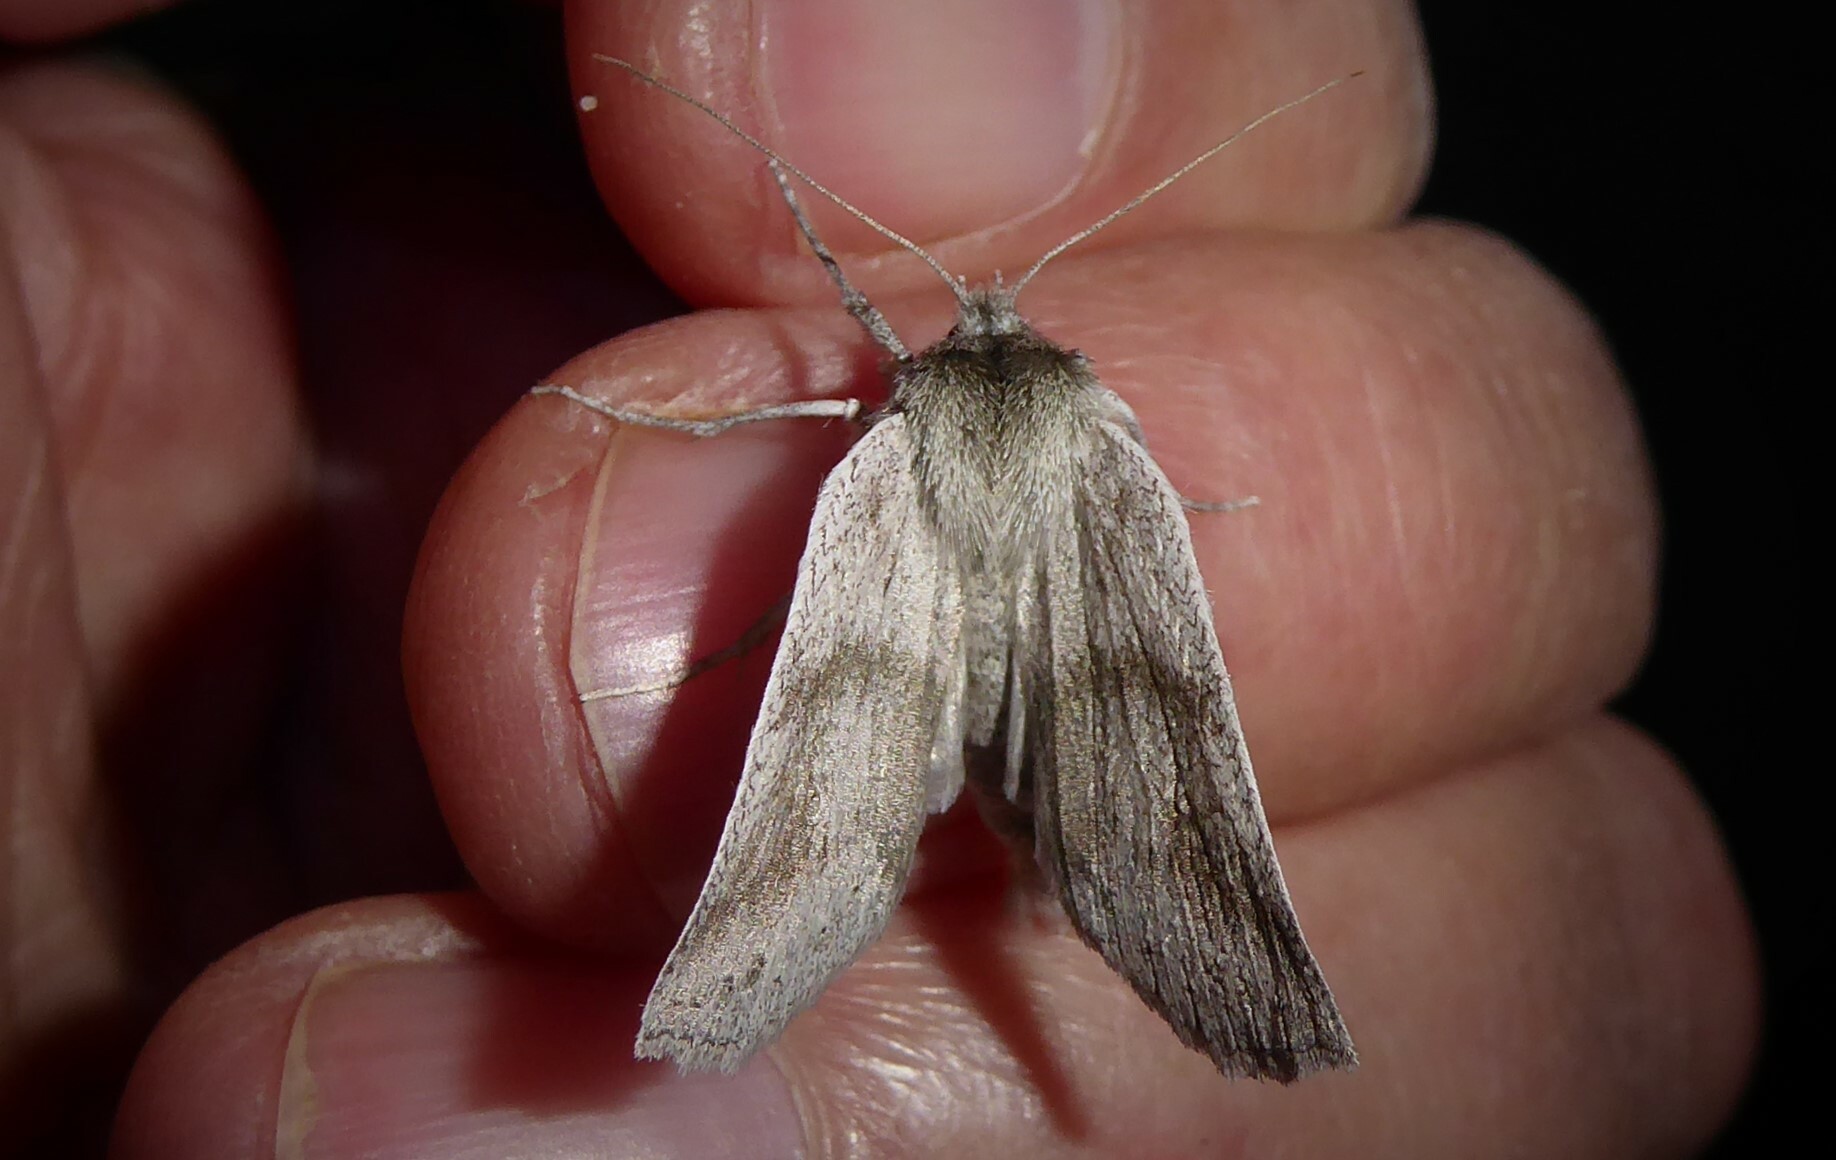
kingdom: Animalia
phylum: Arthropoda
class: Insecta
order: Lepidoptera
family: Geometridae
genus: Declana
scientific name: Declana leptomera
